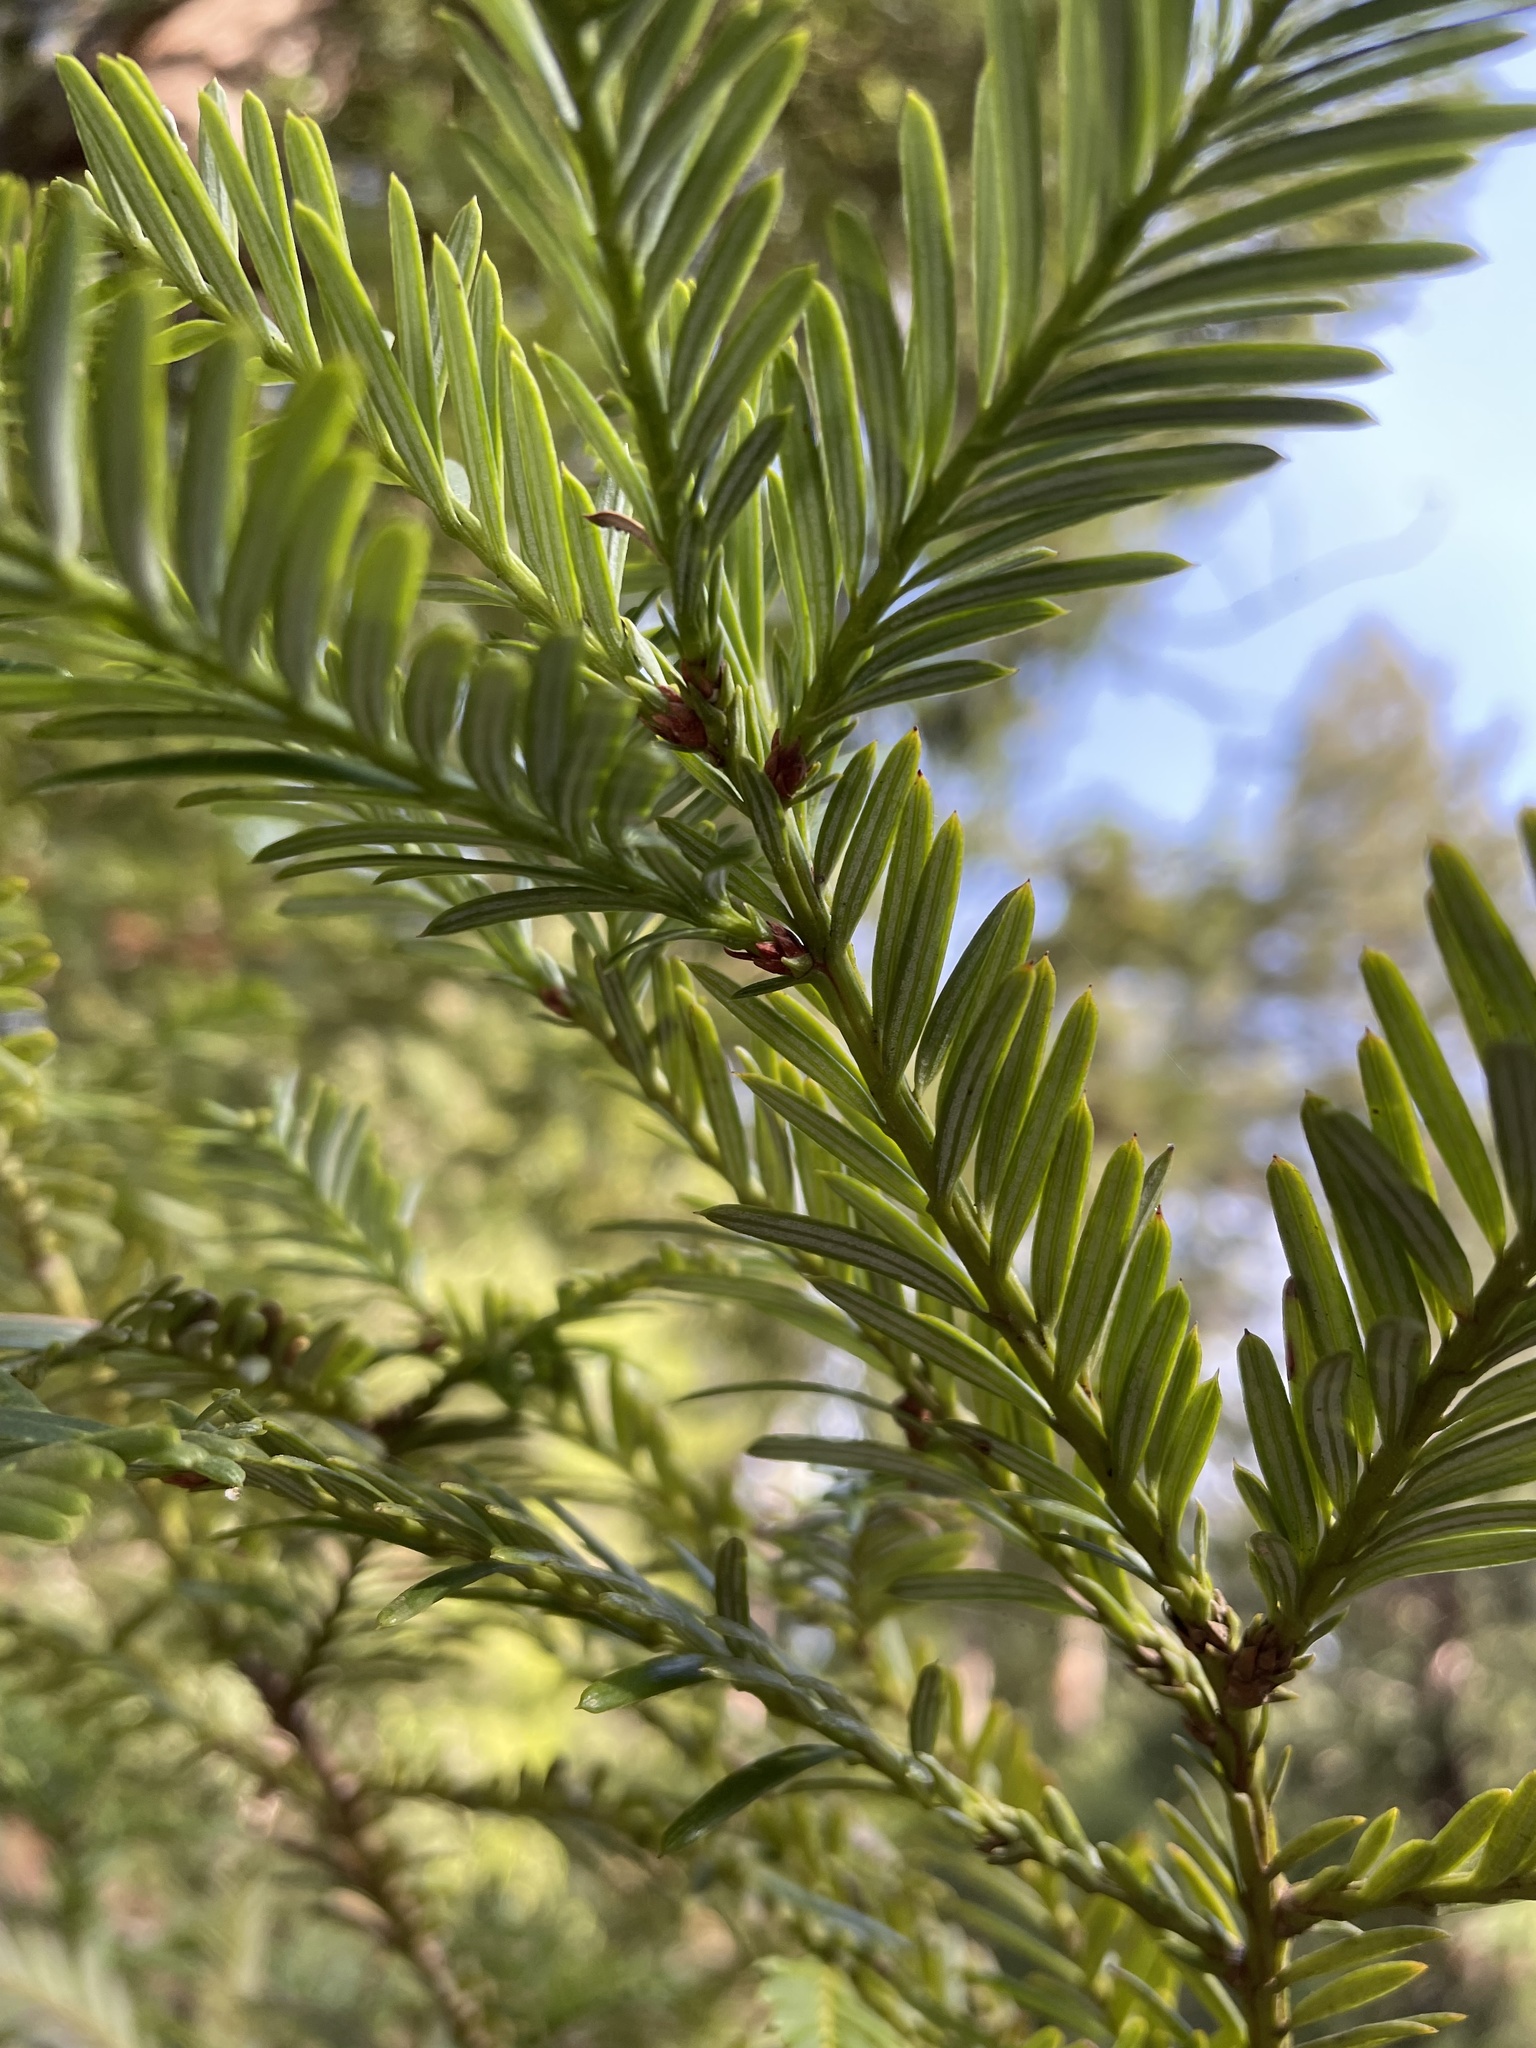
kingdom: Plantae
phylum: Tracheophyta
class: Pinopsida
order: Pinales
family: Cupressaceae
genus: Sequoia
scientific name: Sequoia sempervirens
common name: Coast redwood
